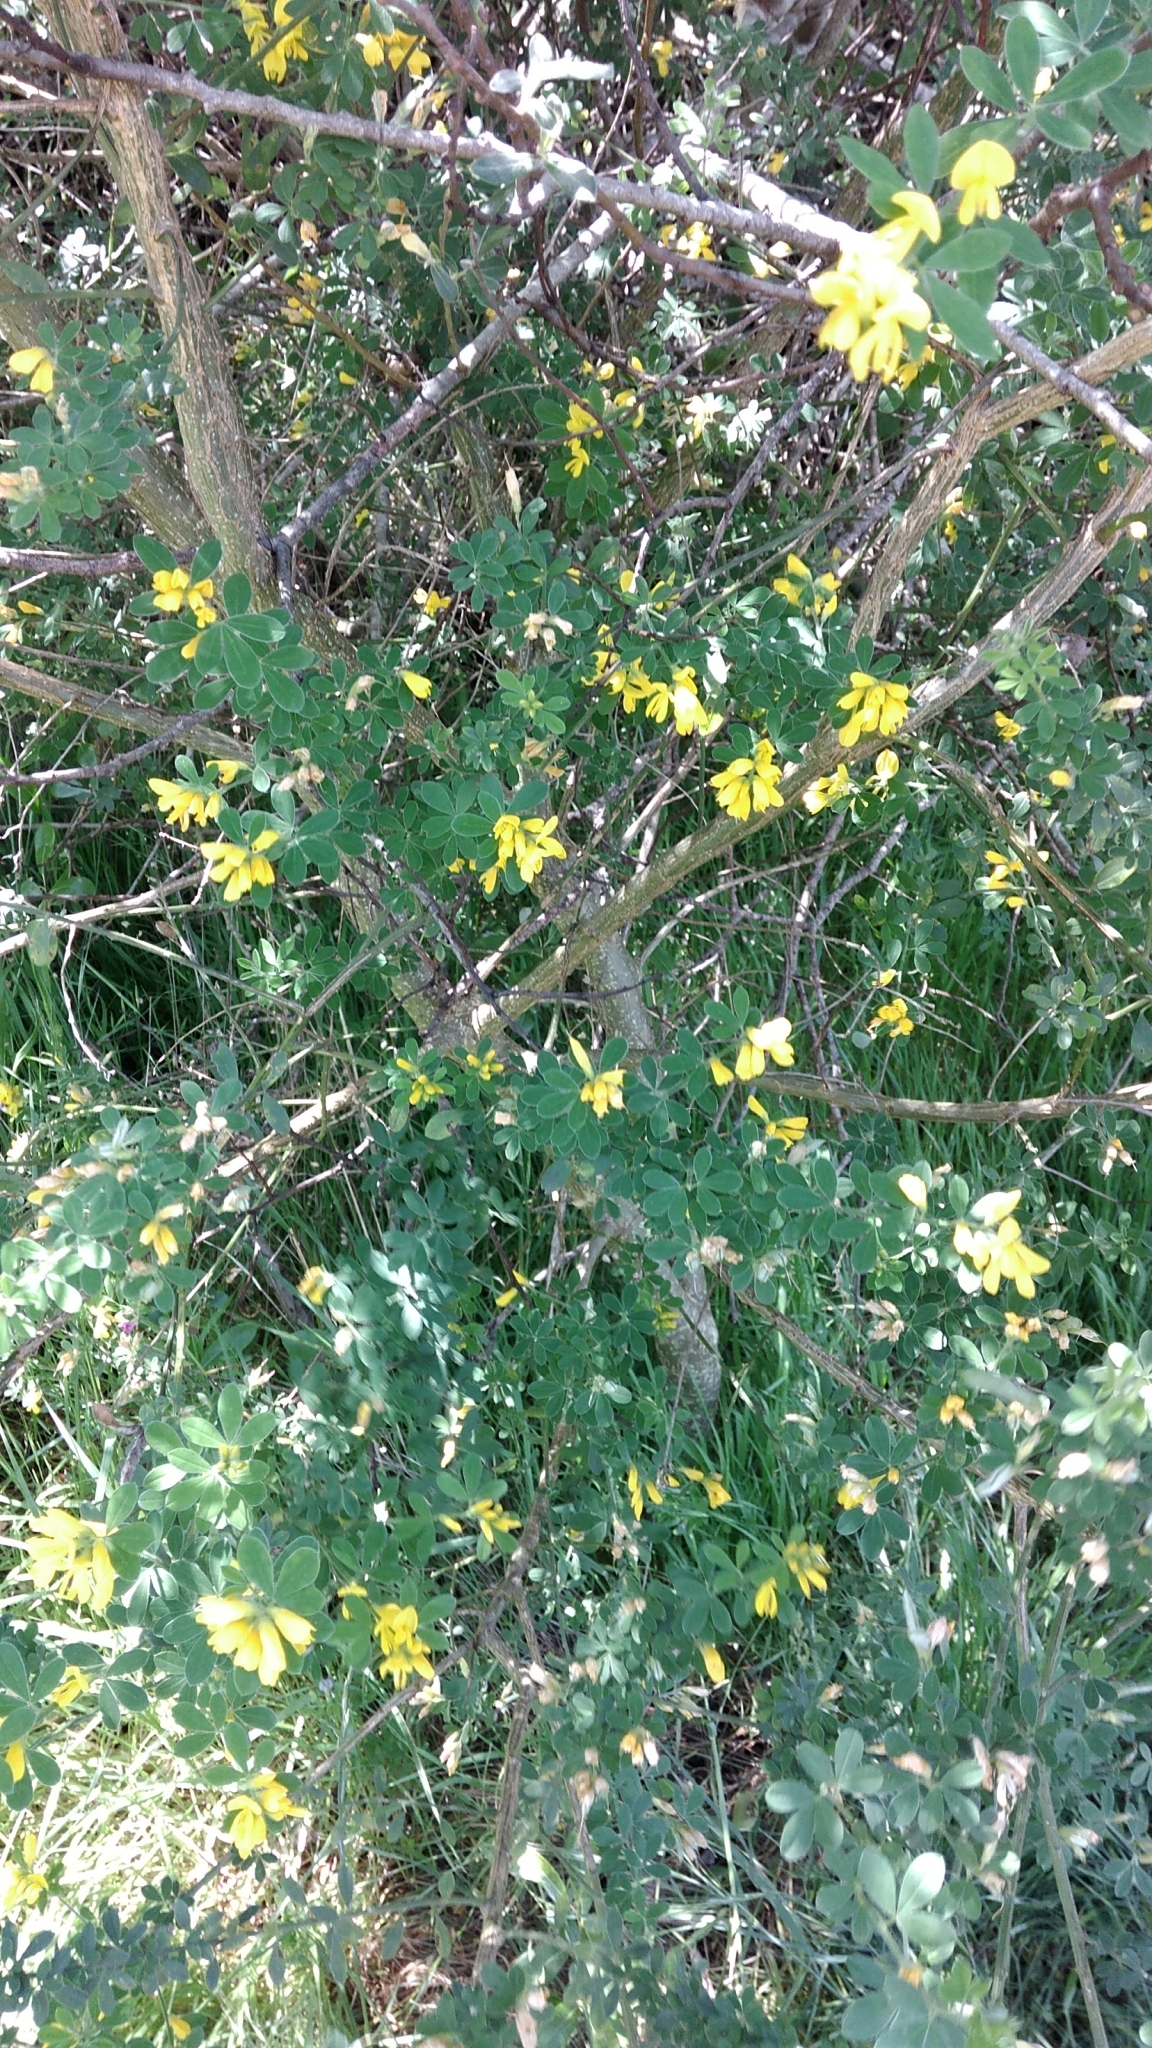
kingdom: Plantae
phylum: Tracheophyta
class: Magnoliopsida
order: Fabales
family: Fabaceae
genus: Genista
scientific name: Genista monspessulana
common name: Montpellier broom
